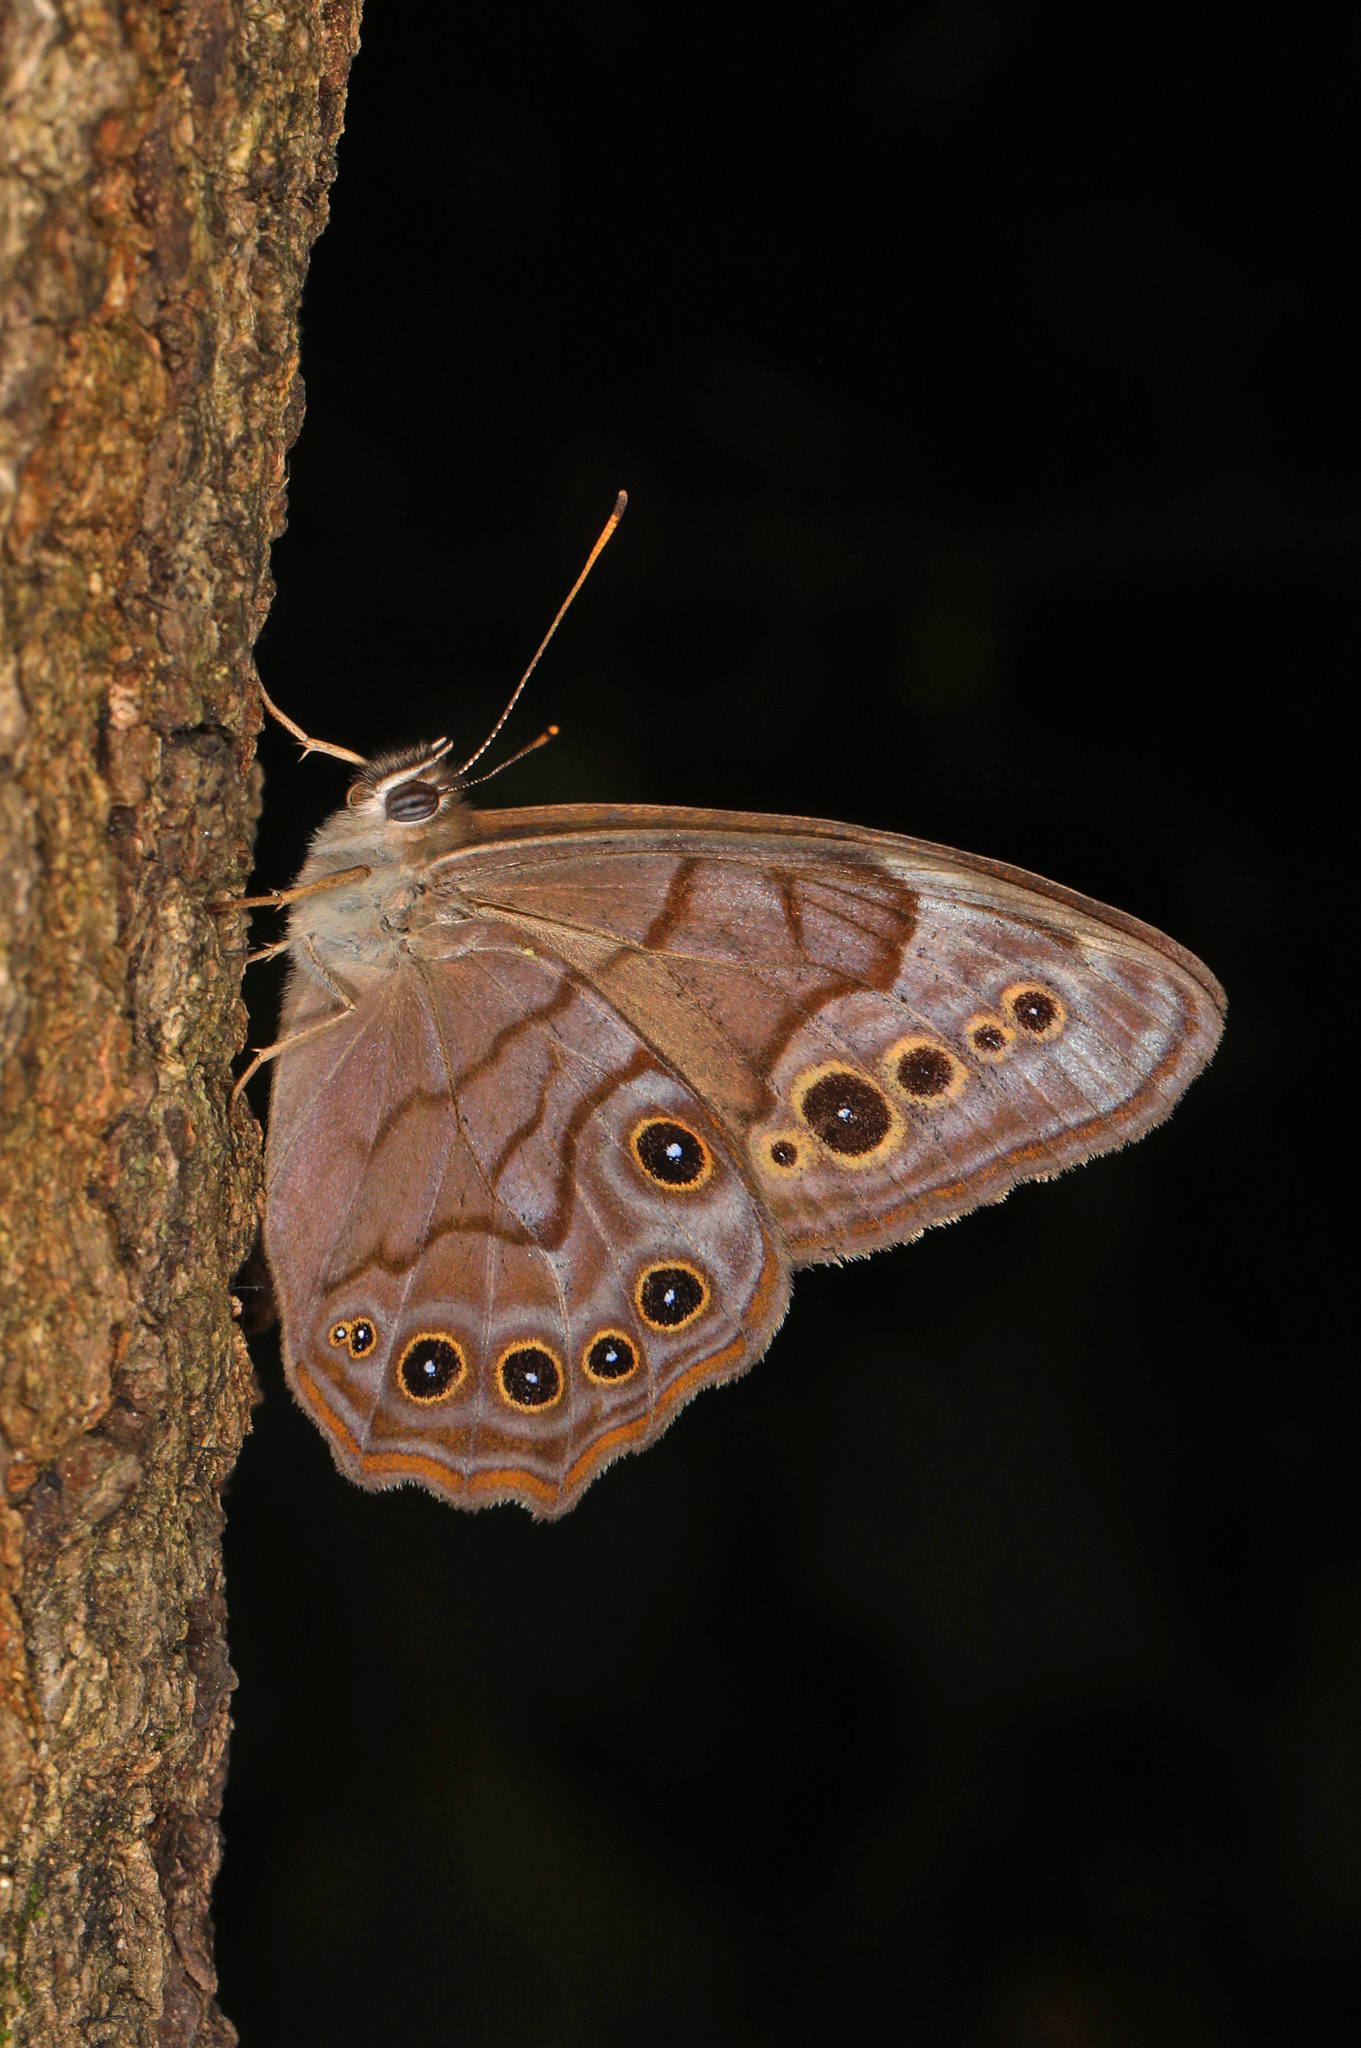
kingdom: Animalia
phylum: Arthropoda
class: Insecta
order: Lepidoptera
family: Nymphalidae
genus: Lethe
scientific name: Lethe anthedon
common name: Northern pearly-eye
